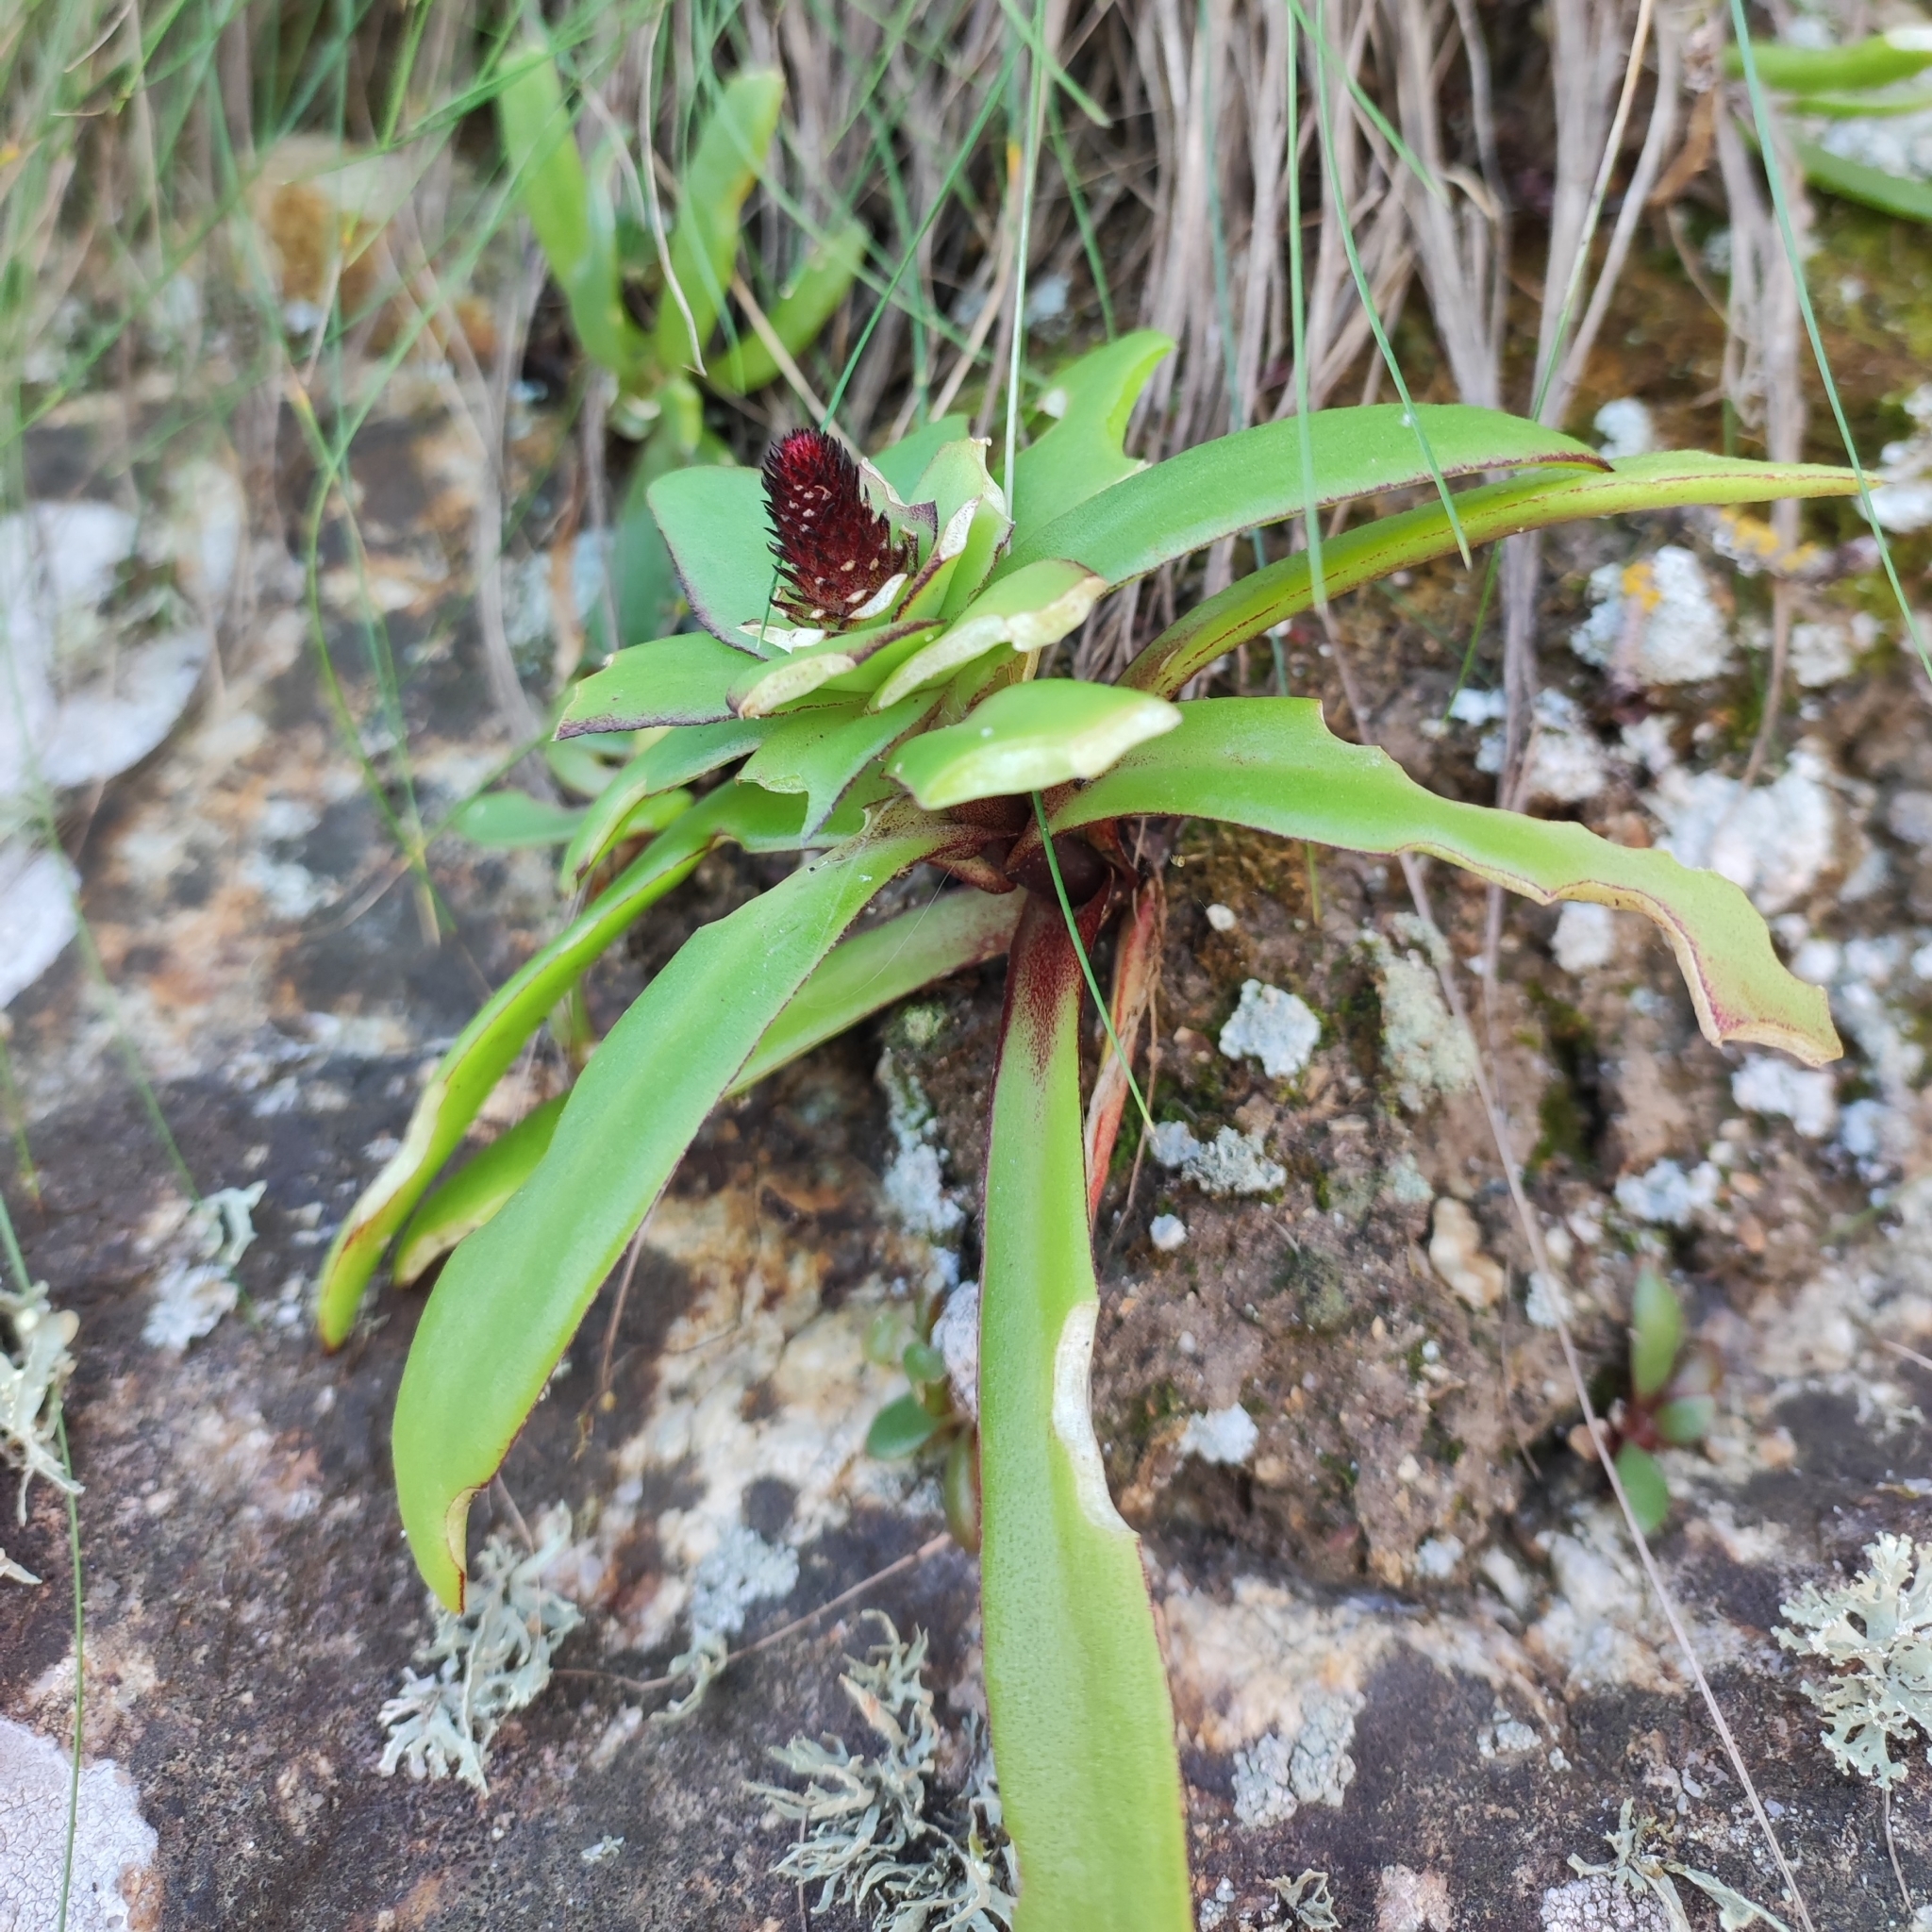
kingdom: Plantae
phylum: Tracheophyta
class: Magnoliopsida
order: Saxifragales
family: Crassulaceae
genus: Orostachys
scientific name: Orostachys maximowiczii
